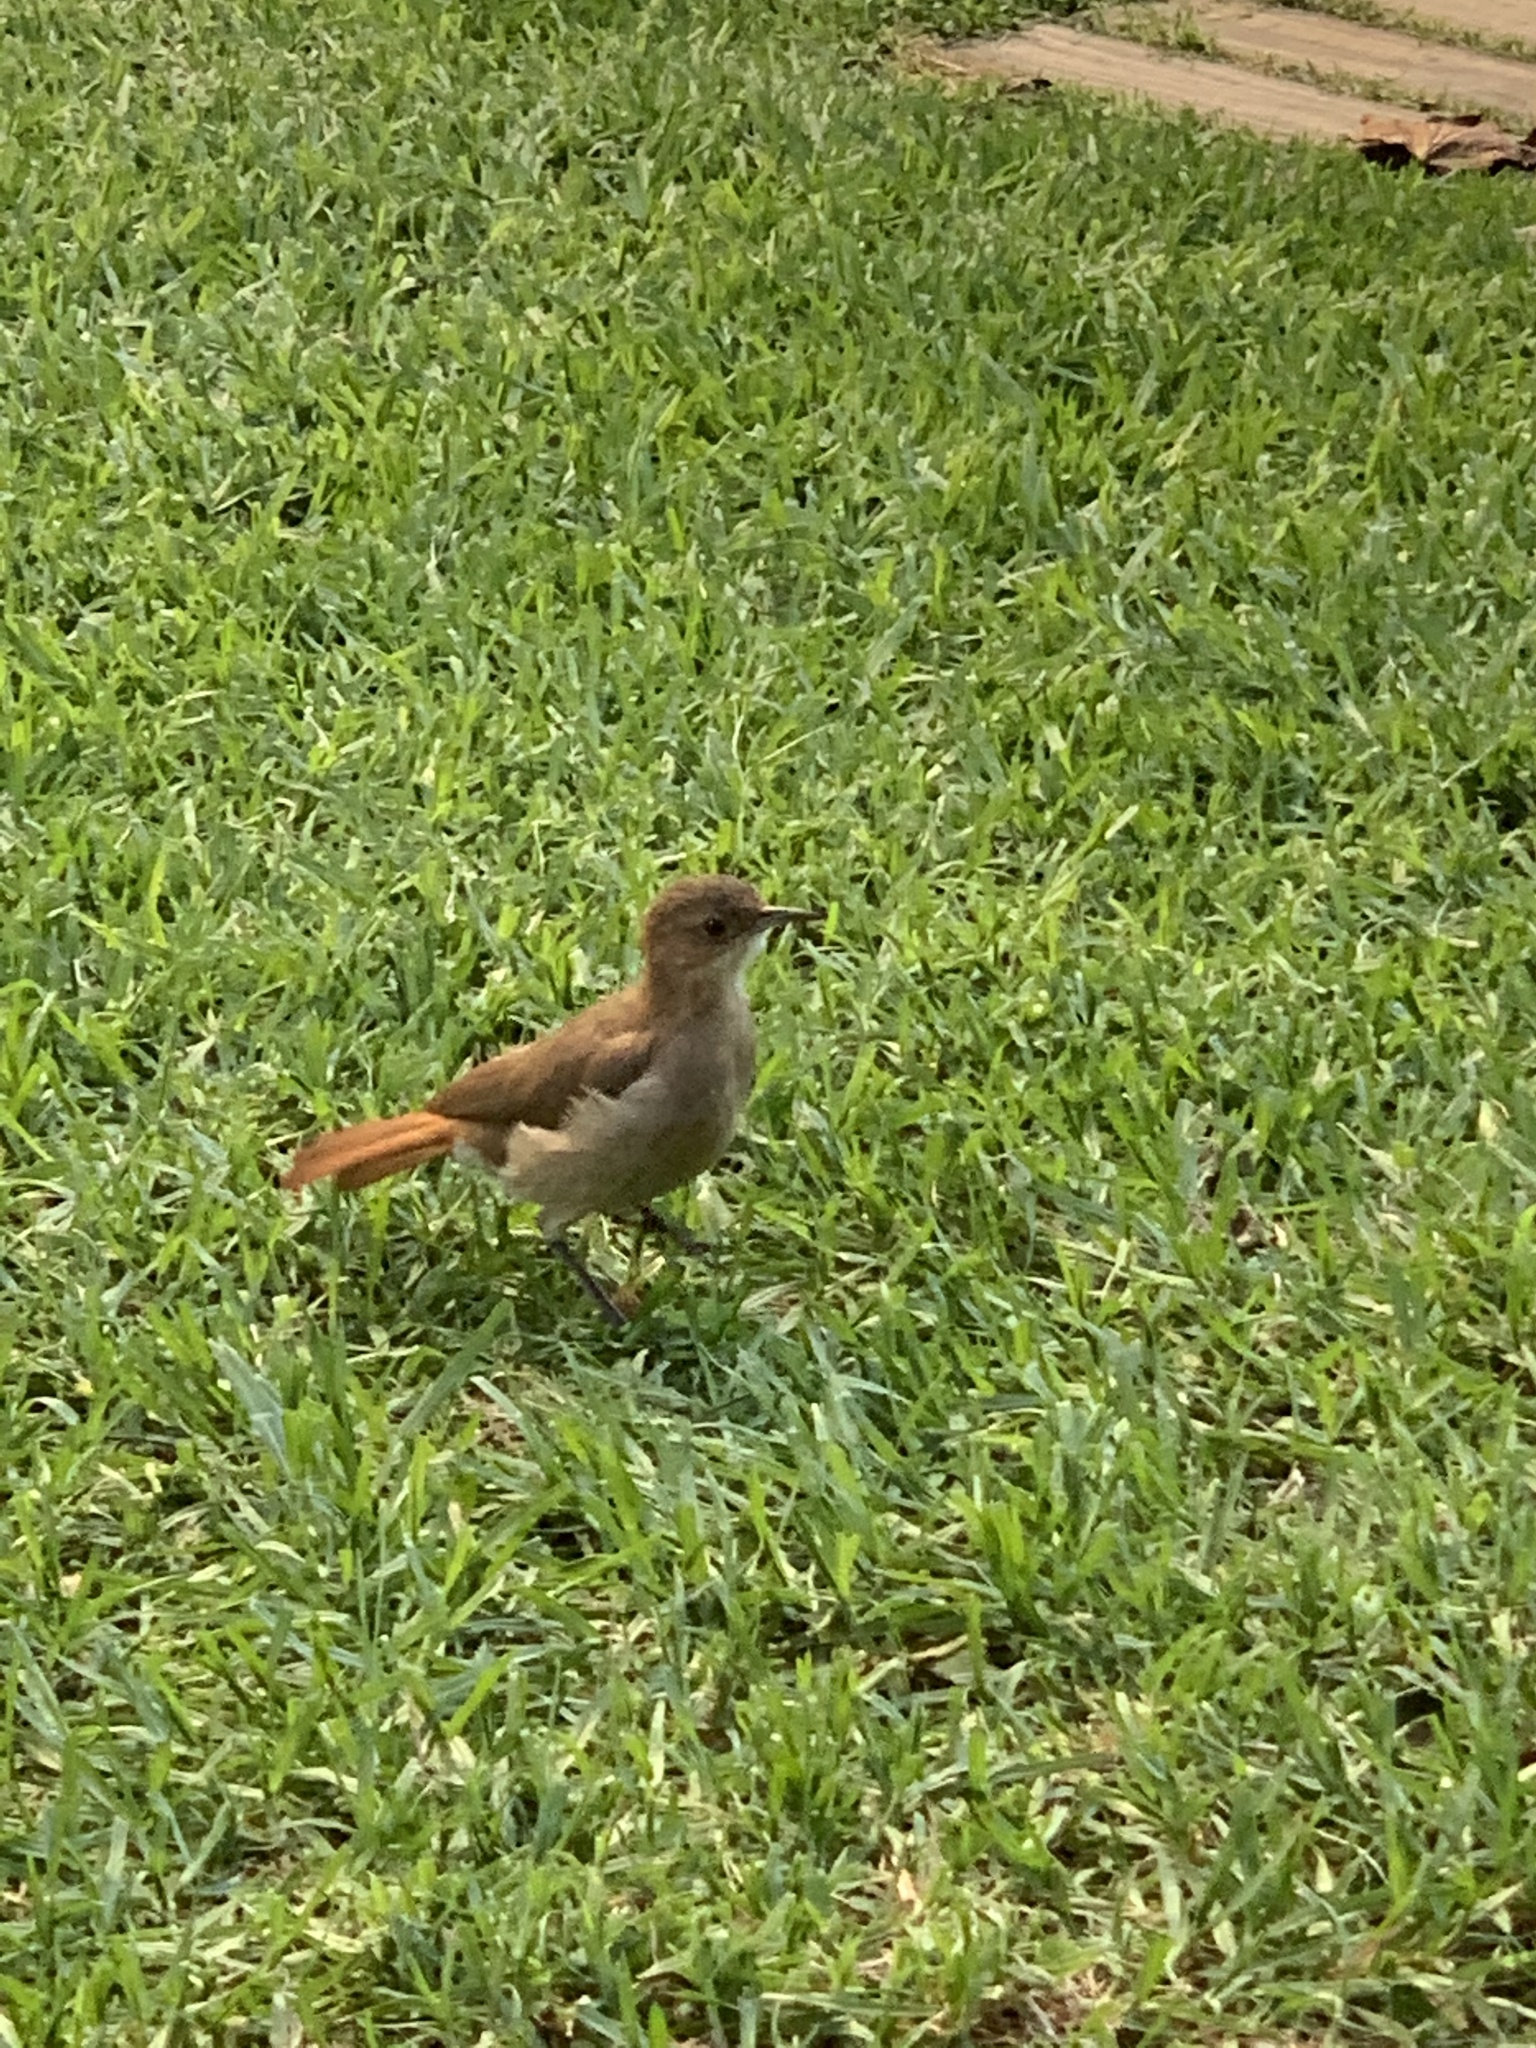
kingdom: Animalia
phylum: Chordata
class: Aves
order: Passeriformes
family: Furnariidae
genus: Furnarius
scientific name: Furnarius rufus
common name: Rufous hornero
